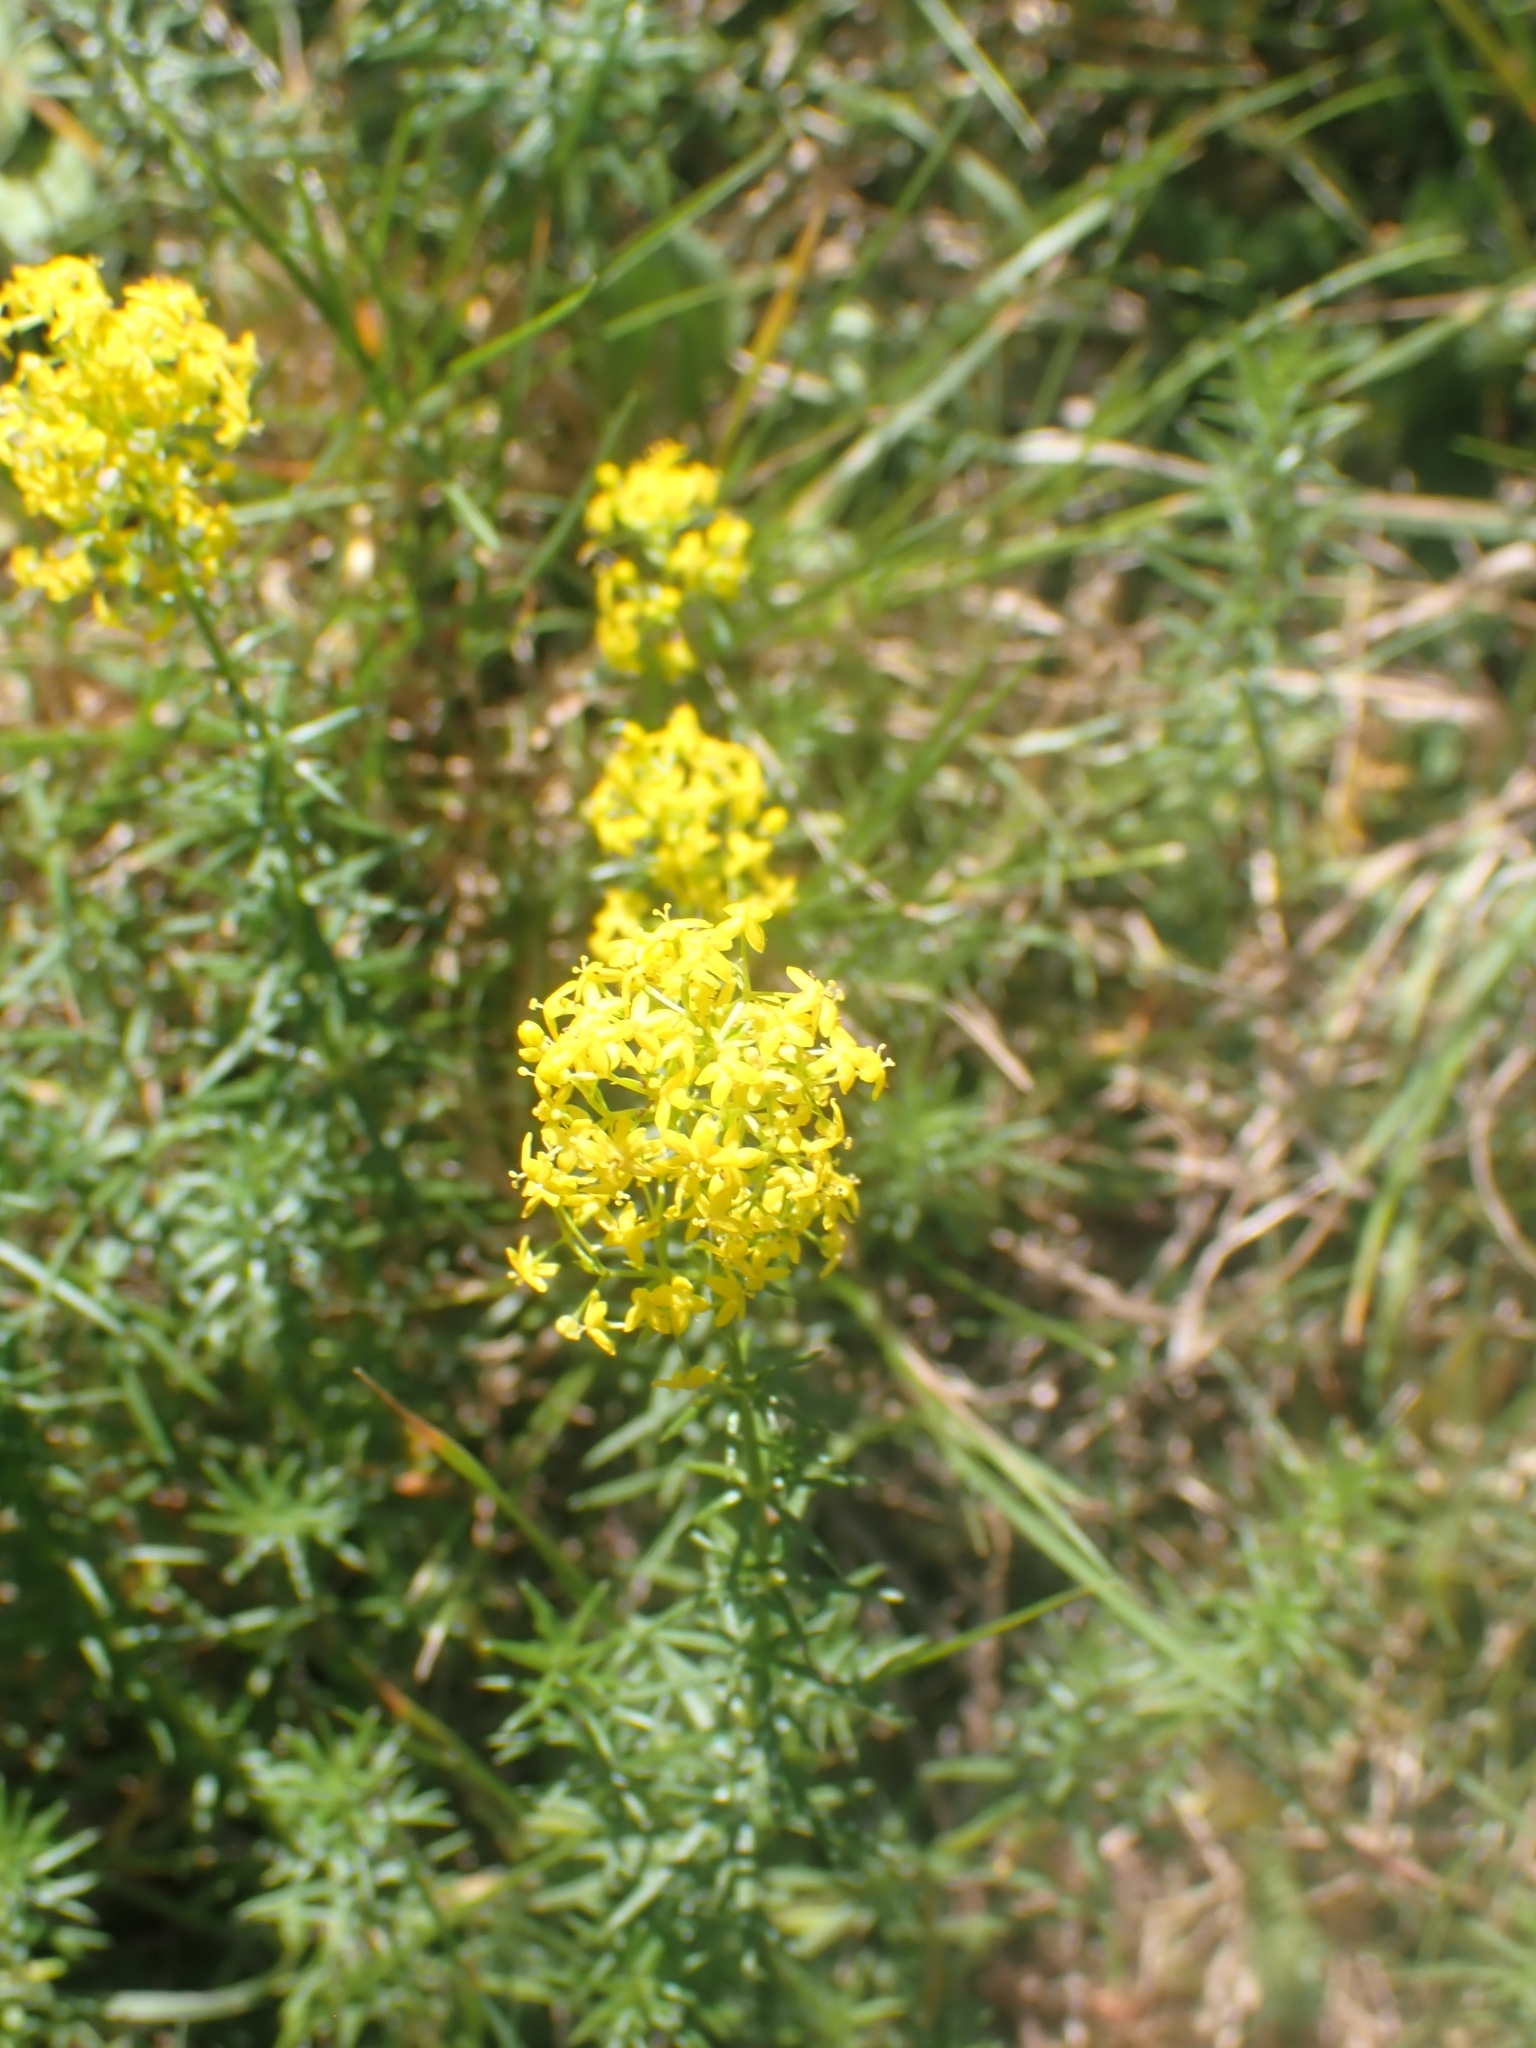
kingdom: Plantae
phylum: Tracheophyta
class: Magnoliopsida
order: Gentianales
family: Rubiaceae
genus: Galium
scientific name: Galium verum
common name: Lady's bedstraw
